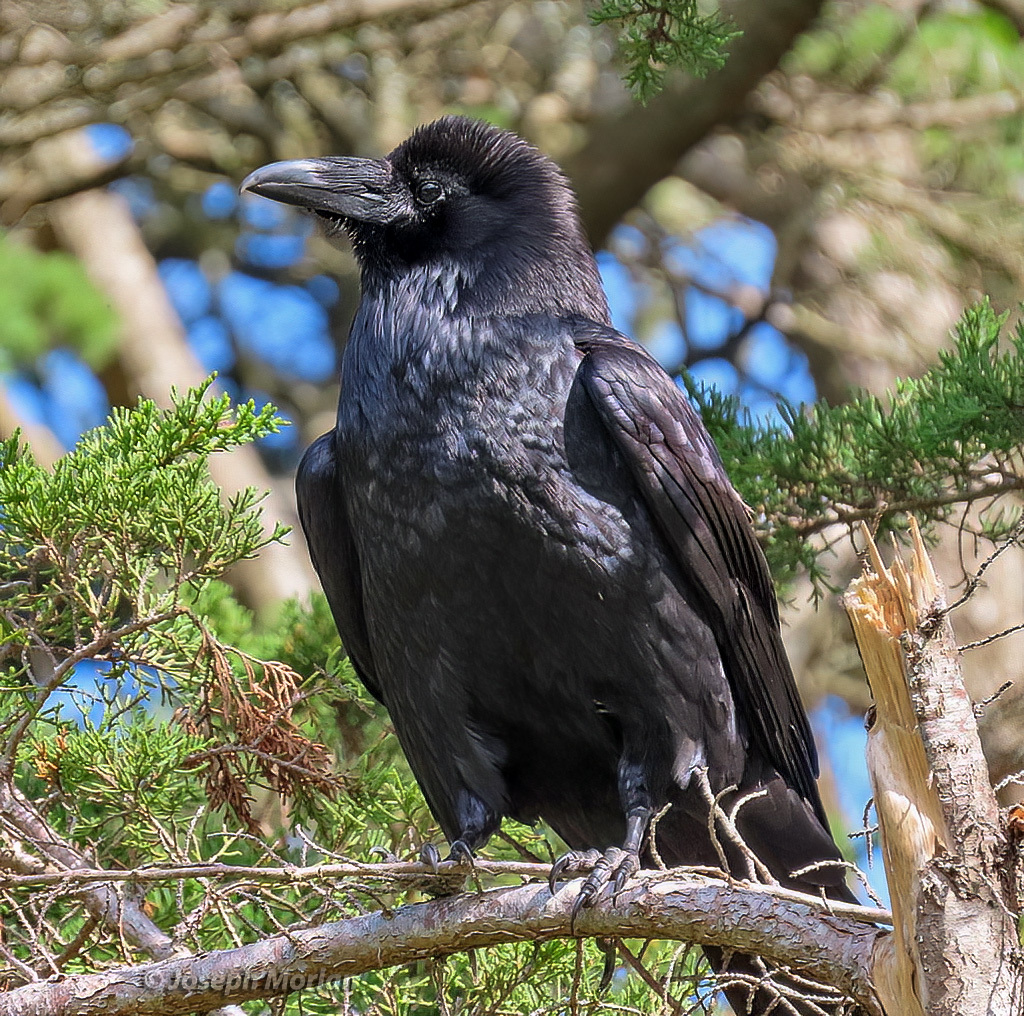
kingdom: Animalia
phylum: Chordata
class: Aves
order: Passeriformes
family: Corvidae
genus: Corvus
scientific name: Corvus corax
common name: Common raven
